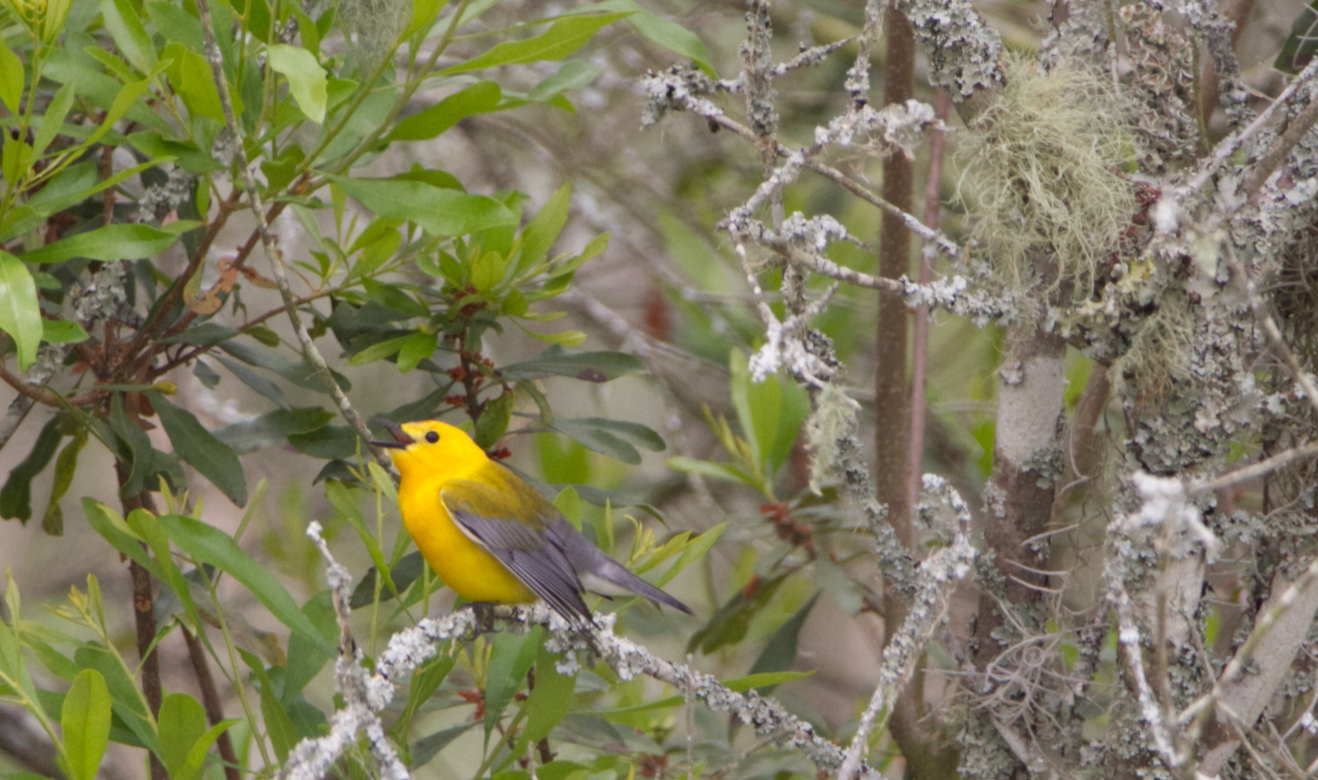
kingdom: Animalia
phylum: Chordata
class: Aves
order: Passeriformes
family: Parulidae
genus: Protonotaria
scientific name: Protonotaria citrea
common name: Prothonotary warbler
